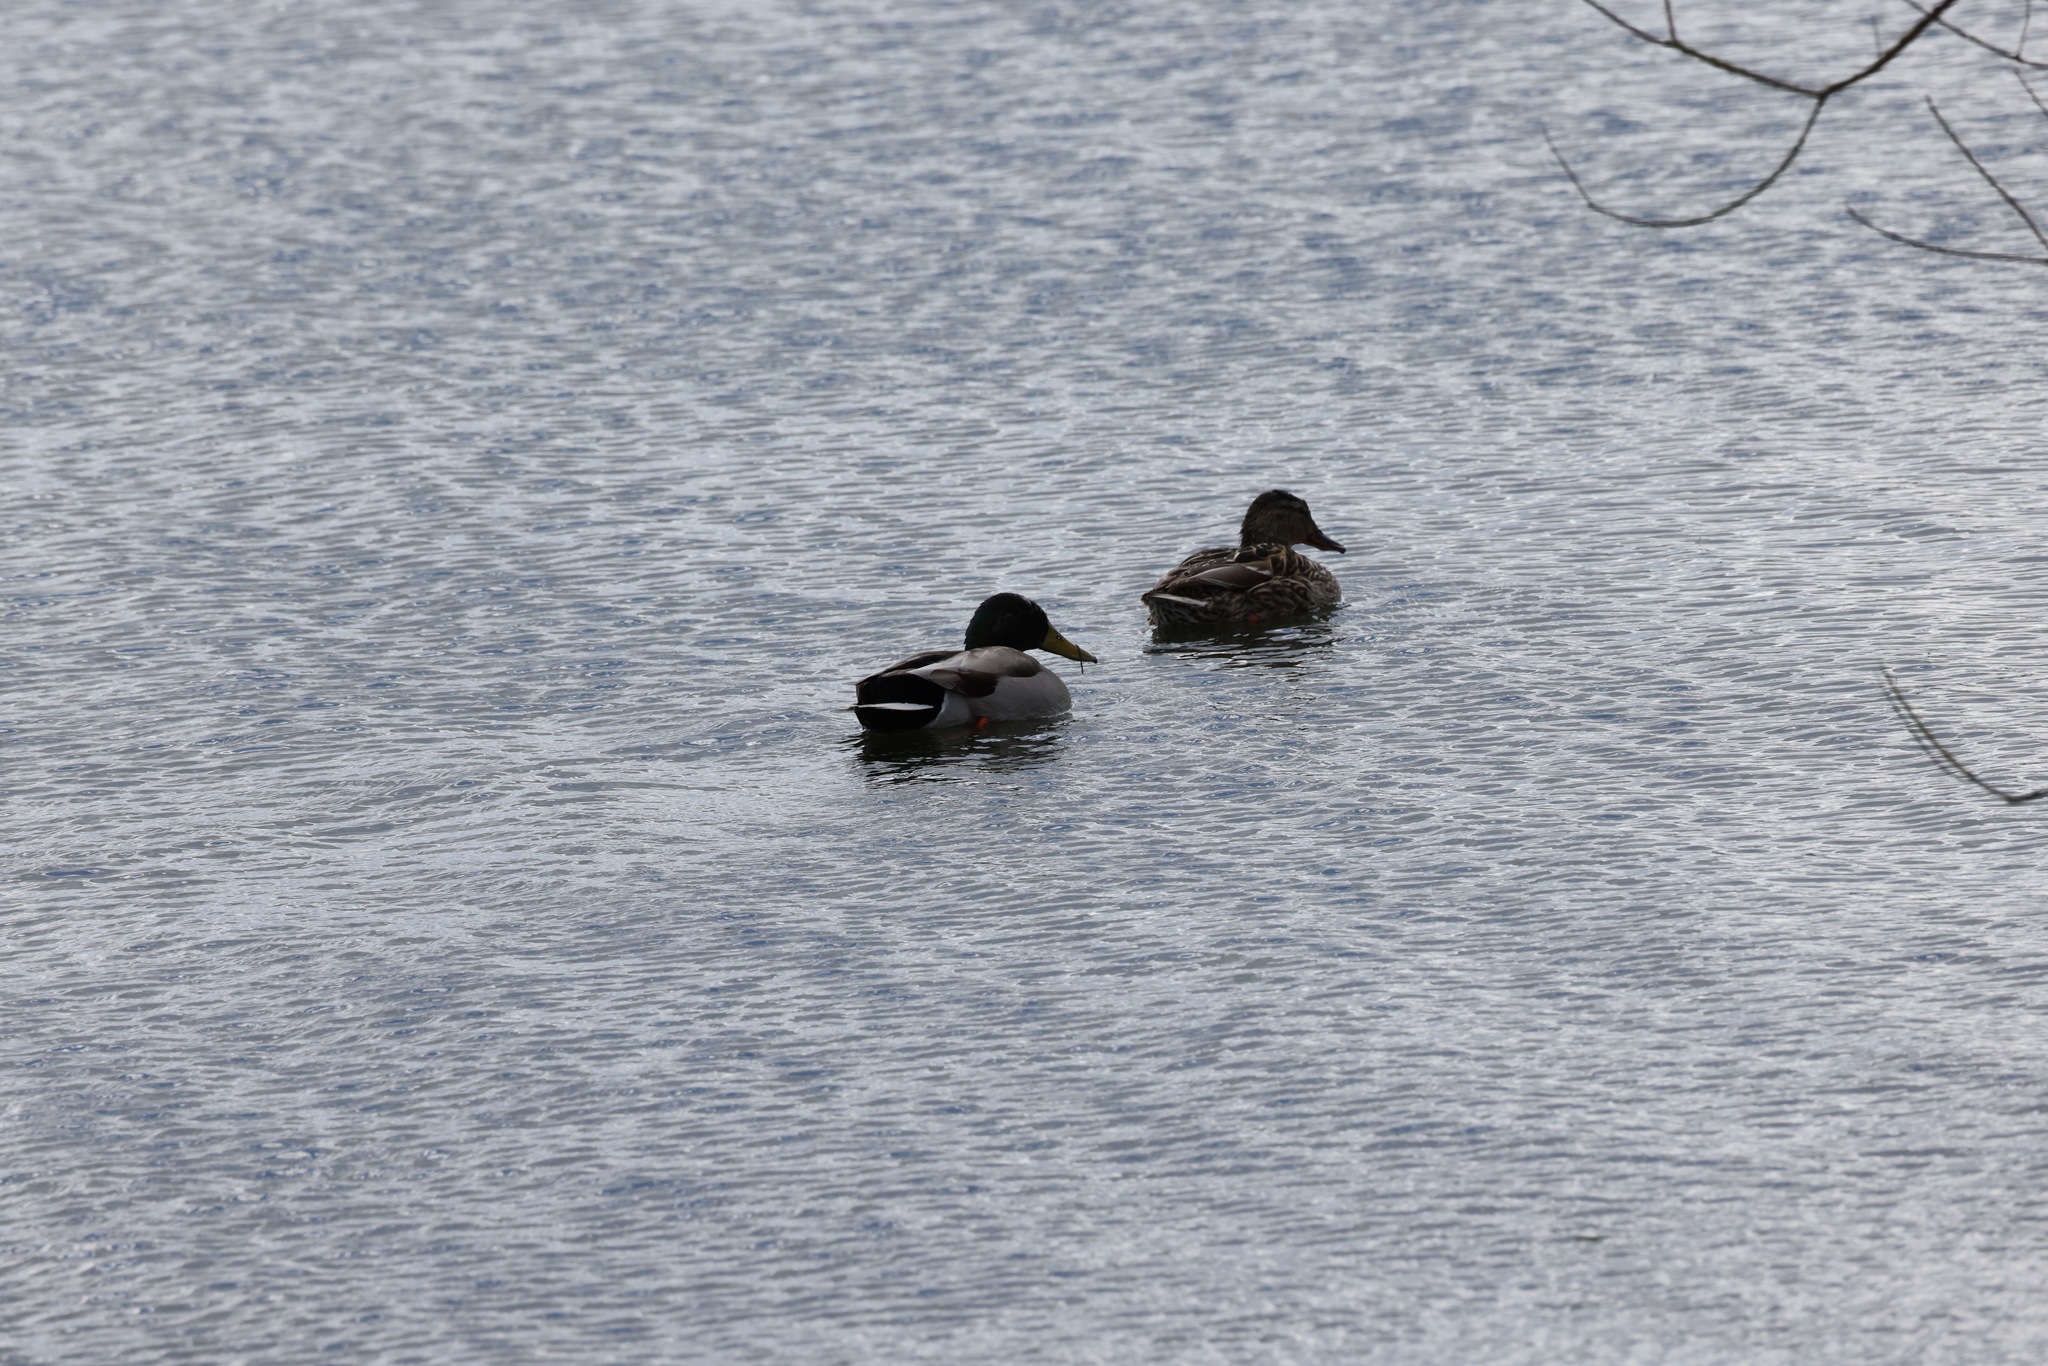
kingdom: Animalia
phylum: Chordata
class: Aves
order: Anseriformes
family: Anatidae
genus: Anas
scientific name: Anas platyrhynchos
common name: Mallard
